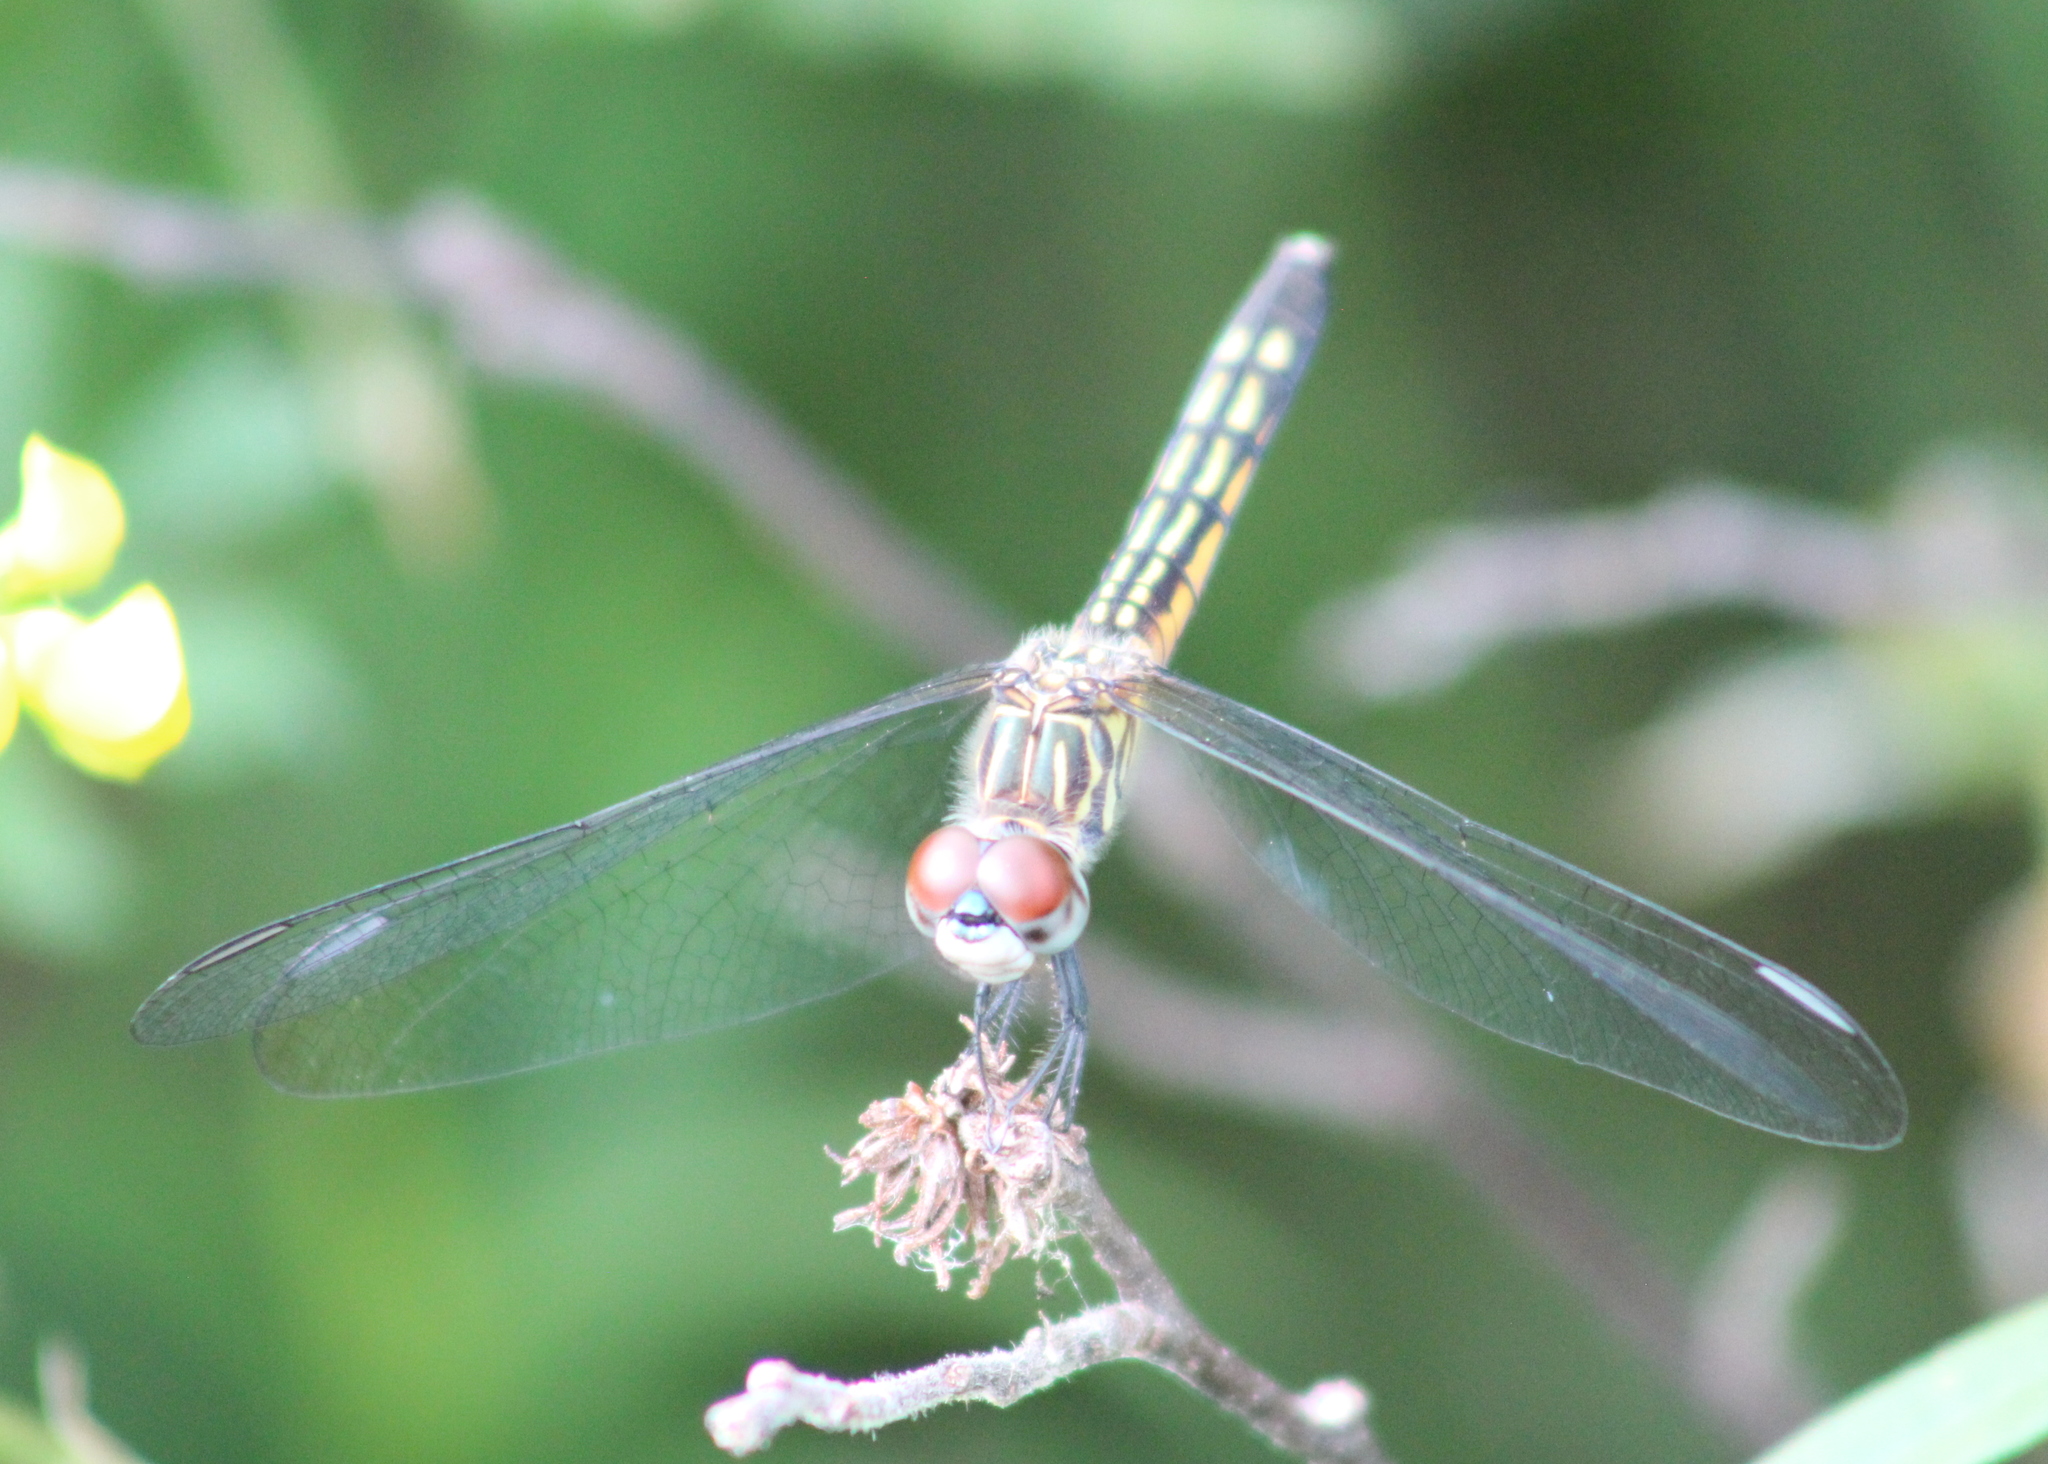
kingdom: Animalia
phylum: Arthropoda
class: Insecta
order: Odonata
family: Libellulidae
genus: Pachydiplax
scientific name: Pachydiplax longipennis
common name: Blue dasher
